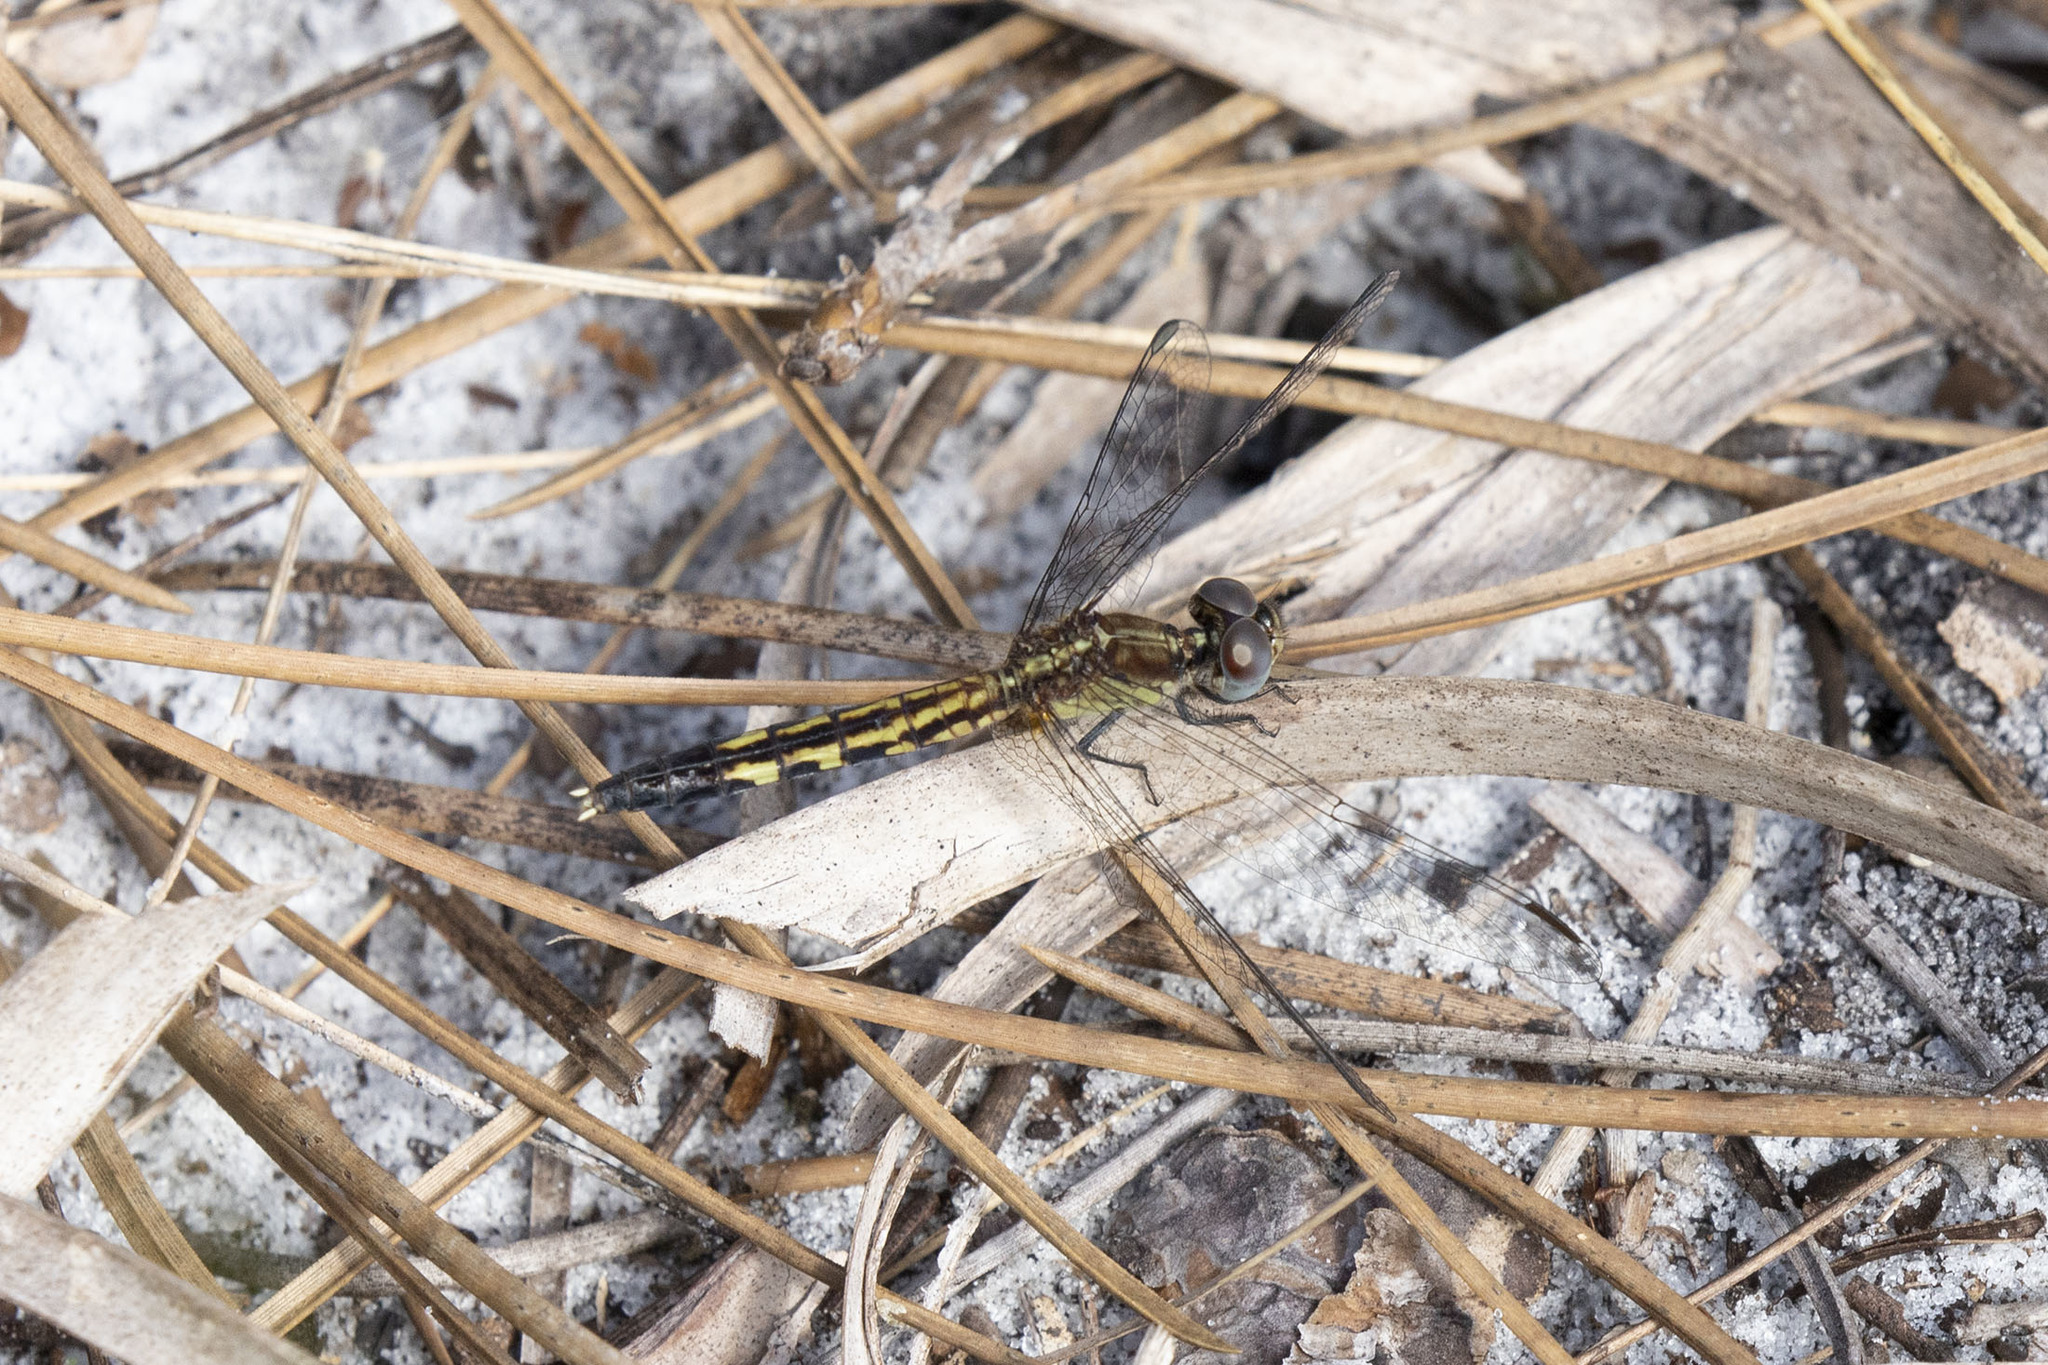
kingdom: Animalia
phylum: Arthropoda
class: Insecta
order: Odonata
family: Libellulidae
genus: Erythrodiplax
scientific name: Erythrodiplax minuscula
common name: Little blue dragonlet
